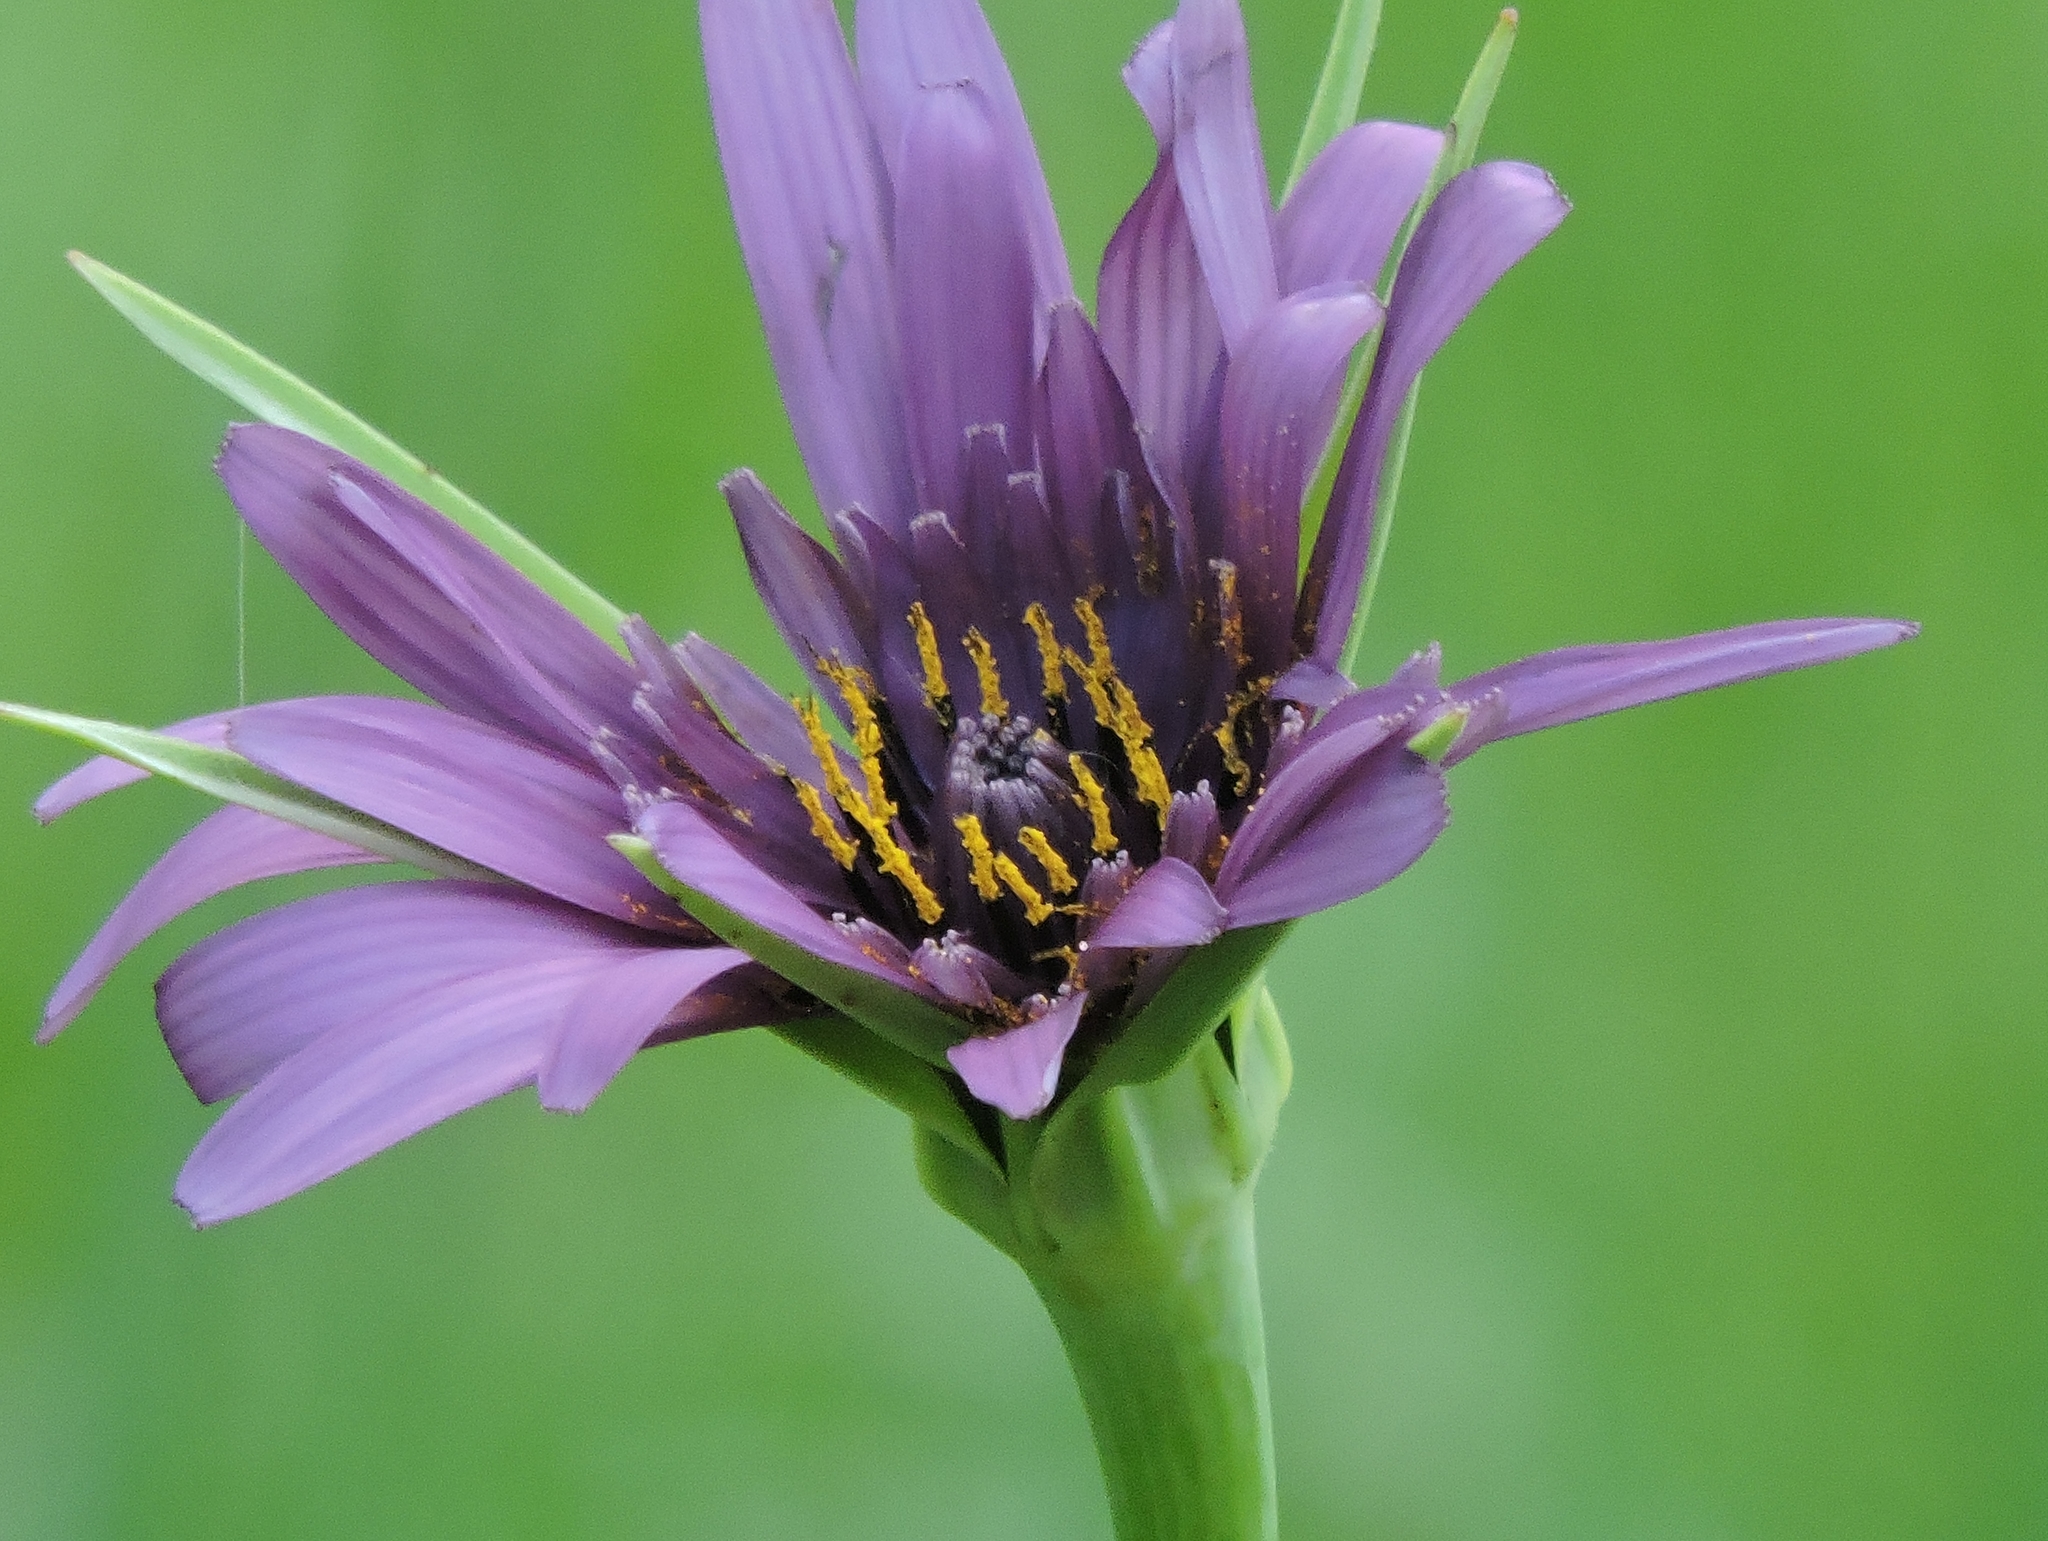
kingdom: Plantae
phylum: Tracheophyta
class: Magnoliopsida
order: Asterales
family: Asteraceae
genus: Tragopogon
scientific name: Tragopogon porrifolius
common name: Salsify
